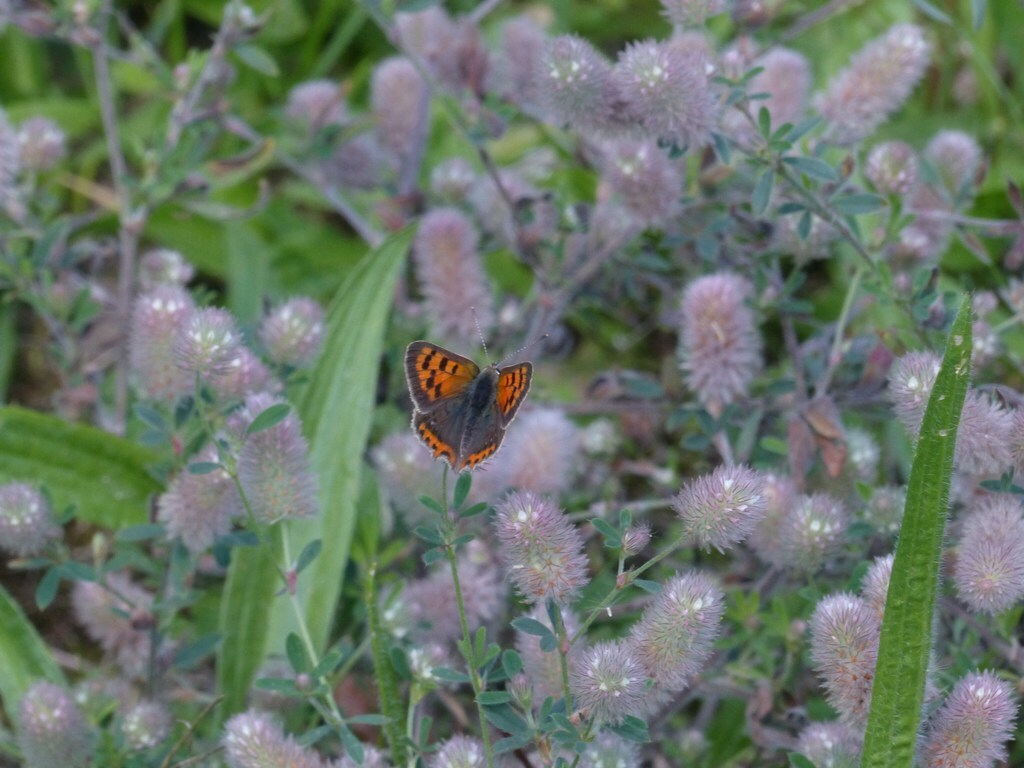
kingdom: Animalia
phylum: Arthropoda
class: Insecta
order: Lepidoptera
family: Lycaenidae
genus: Lycaena
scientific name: Lycaena phlaeas
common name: Small copper
